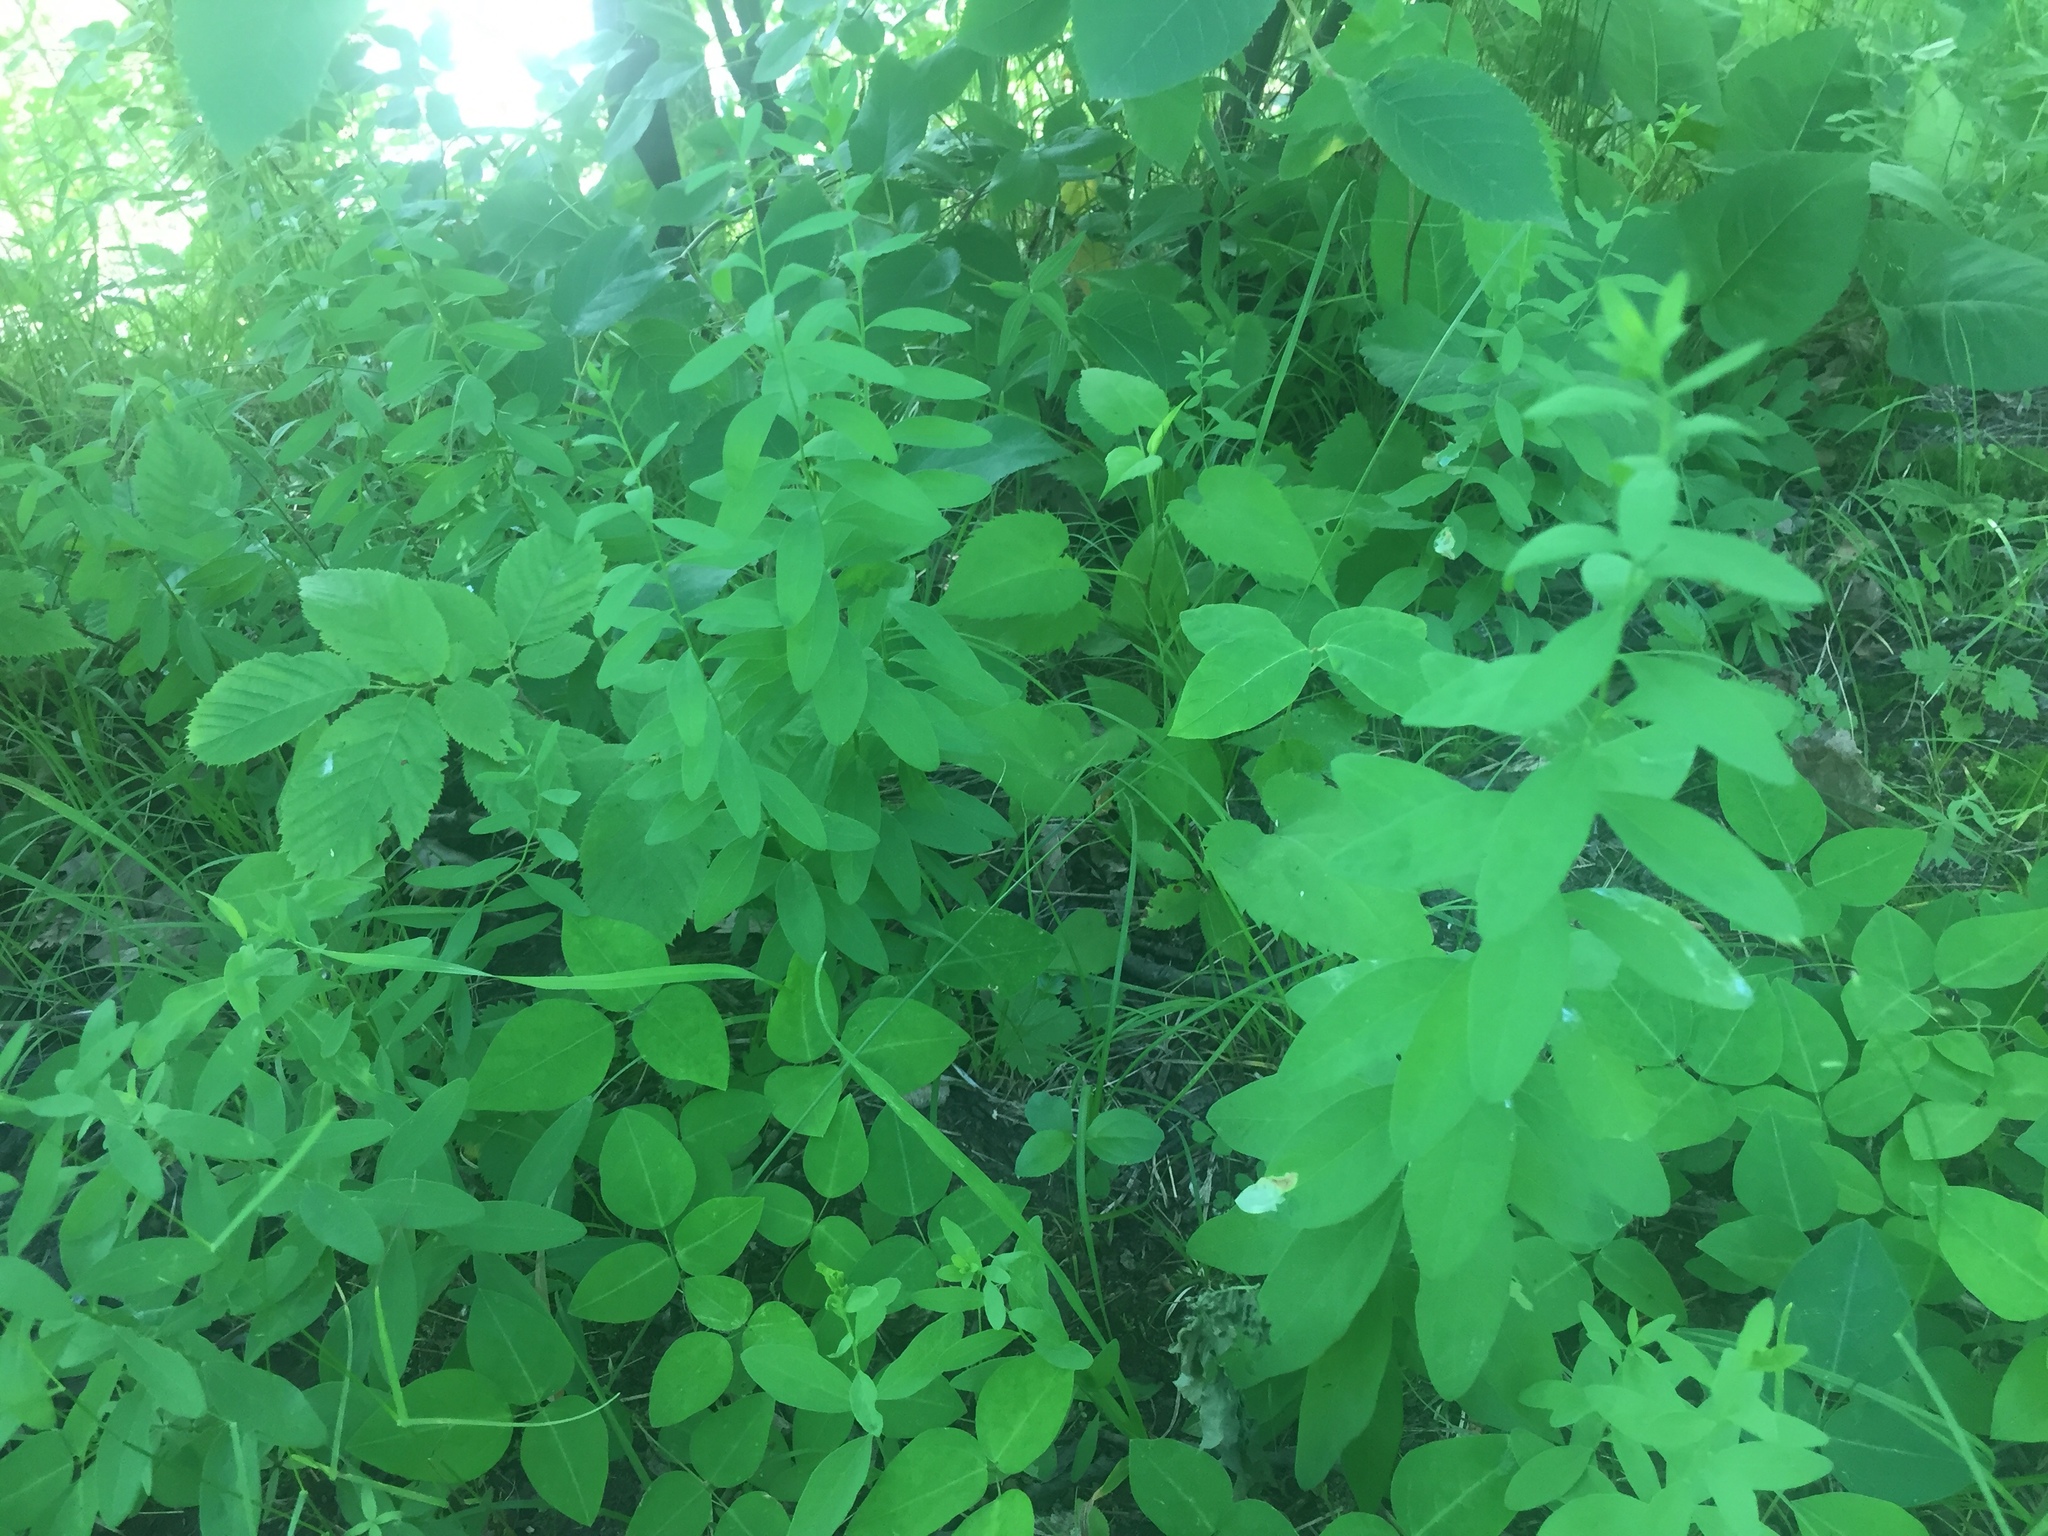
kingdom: Plantae
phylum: Tracheophyta
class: Magnoliopsida
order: Santalales
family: Comandraceae
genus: Comandra
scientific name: Comandra umbellata
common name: Bastard toadflax
